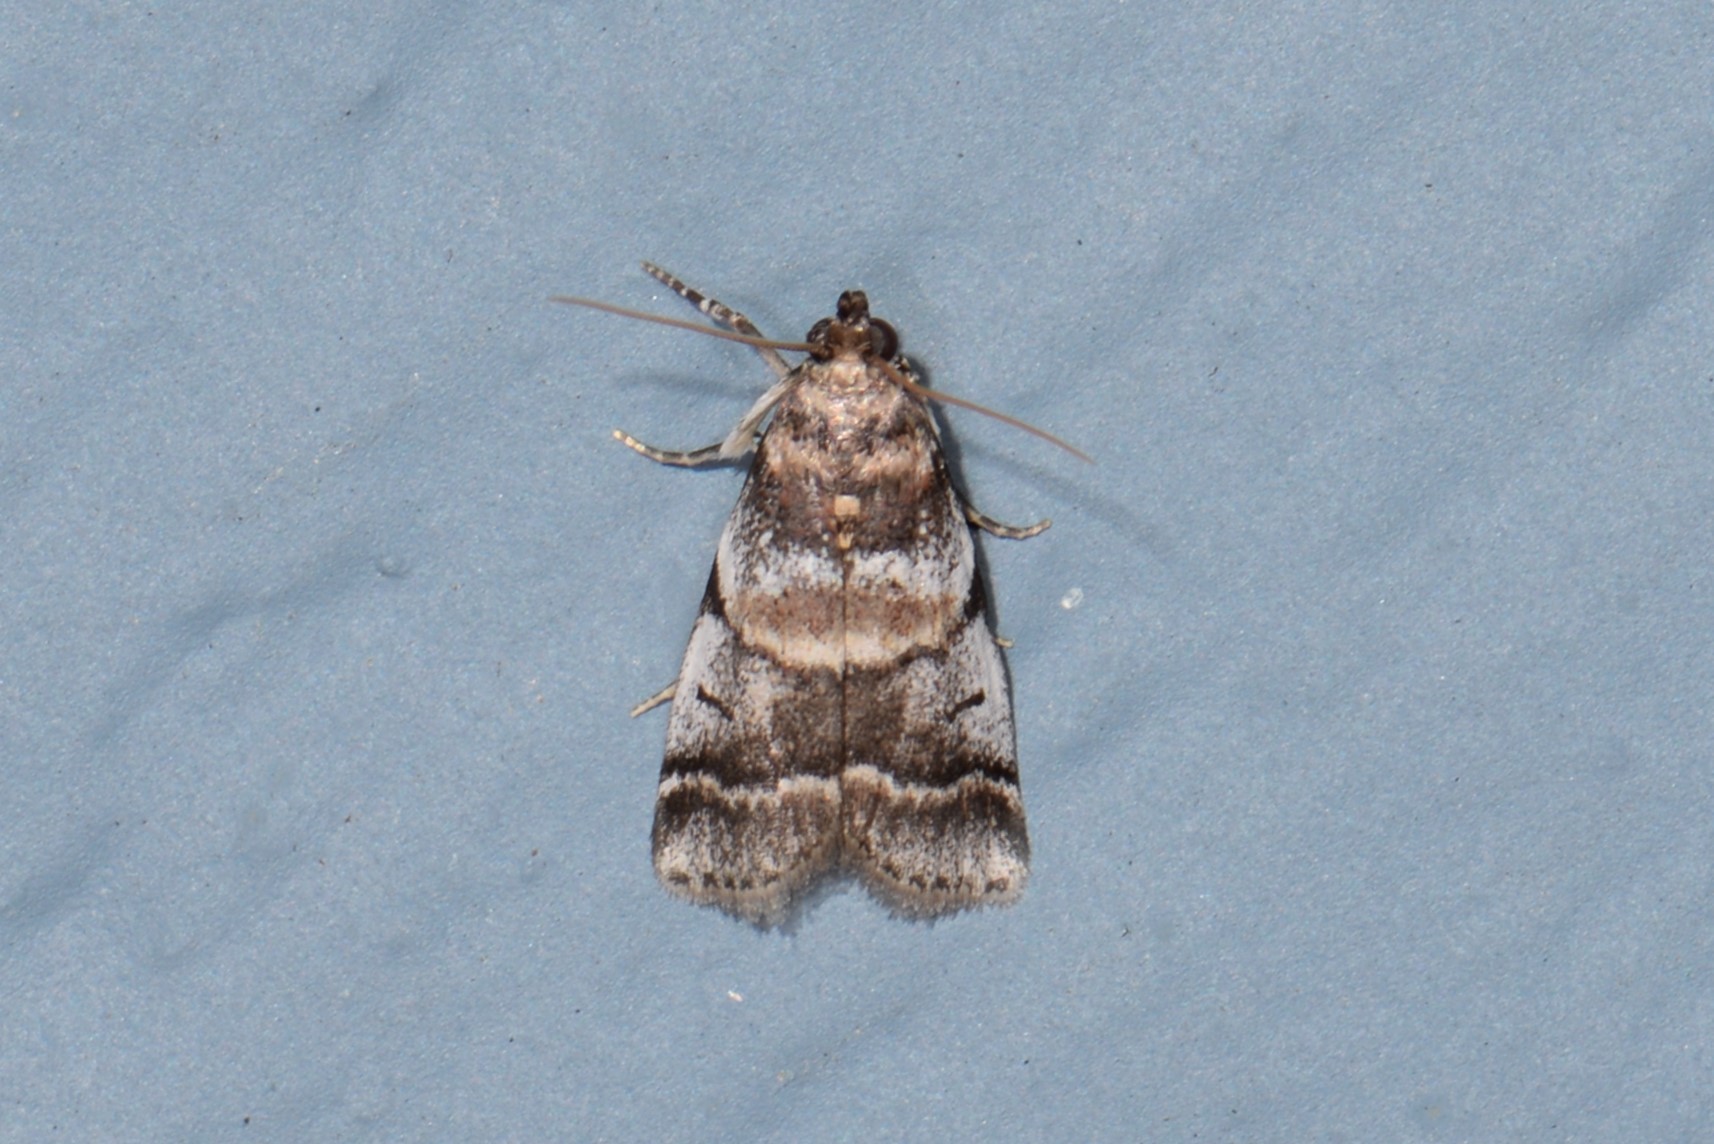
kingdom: Animalia
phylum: Arthropoda
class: Insecta
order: Lepidoptera
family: Pyralidae
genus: Acrobasis
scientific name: Acrobasis indigenella
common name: Leaf crumpler moth
